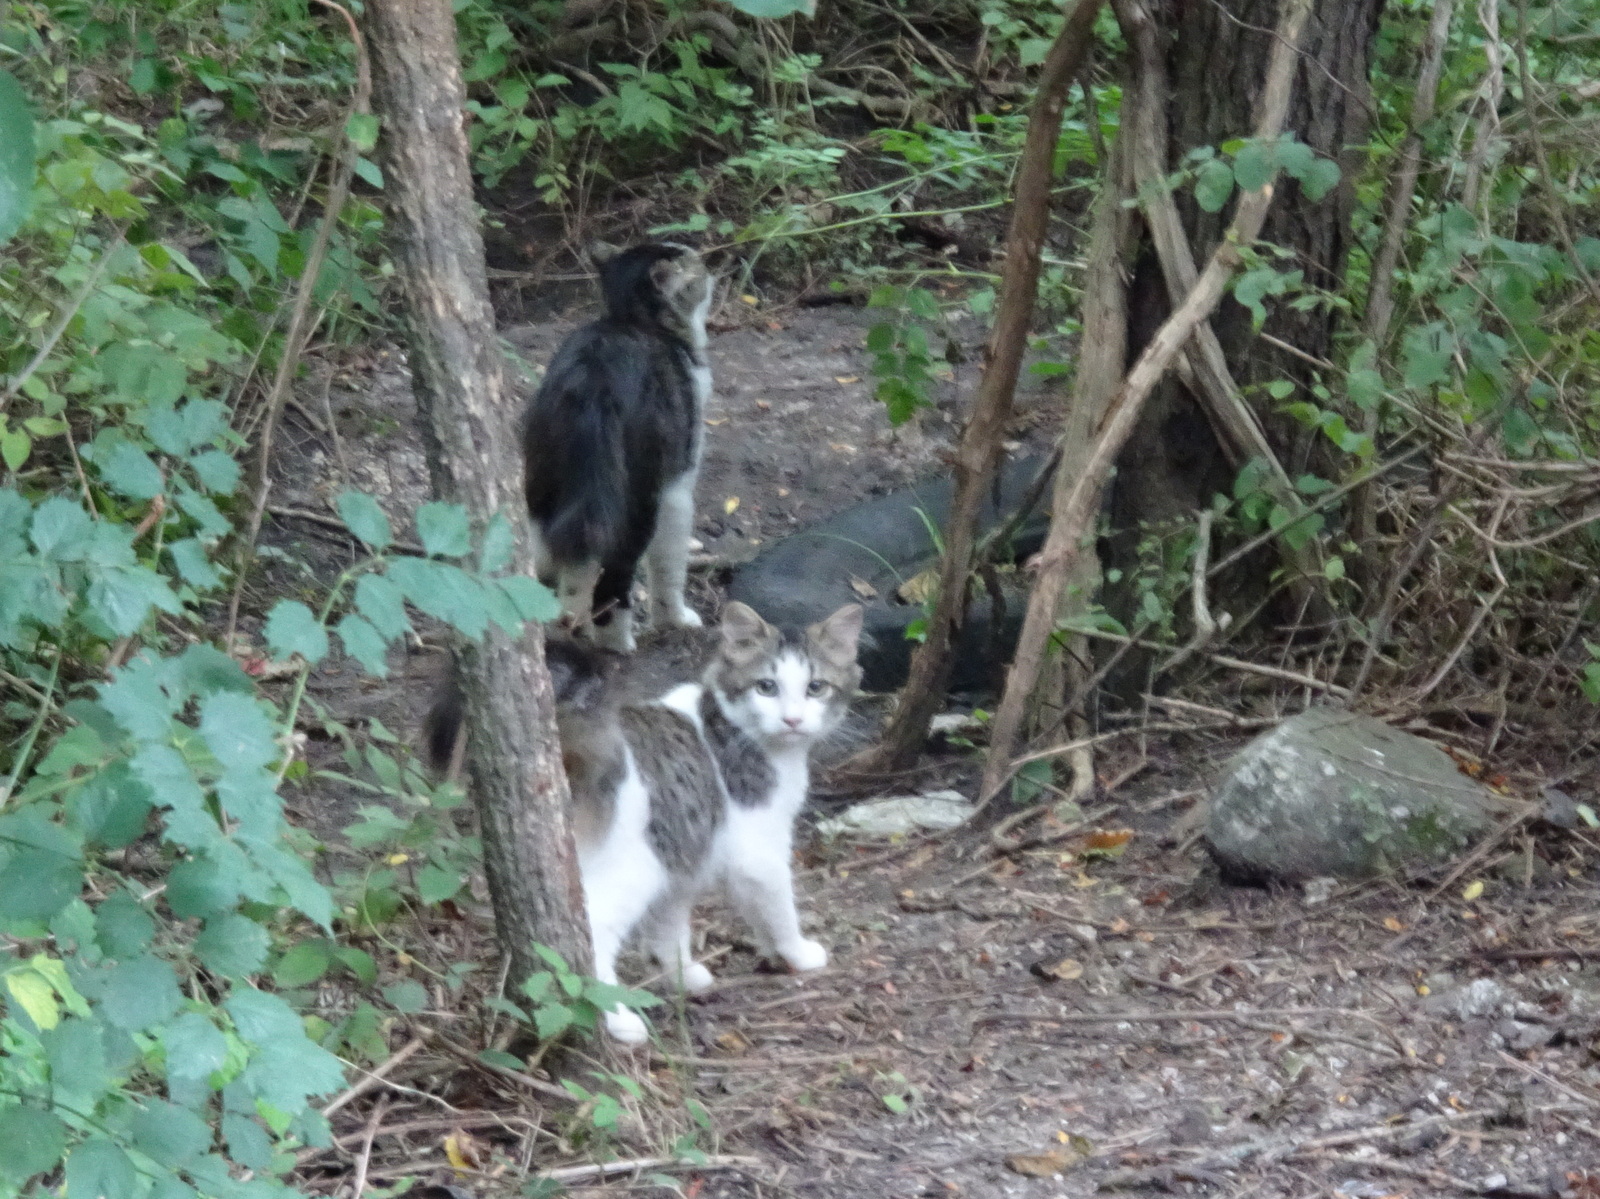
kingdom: Animalia
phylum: Chordata
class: Mammalia
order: Carnivora
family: Felidae
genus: Felis
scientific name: Felis catus
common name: Domestic cat
